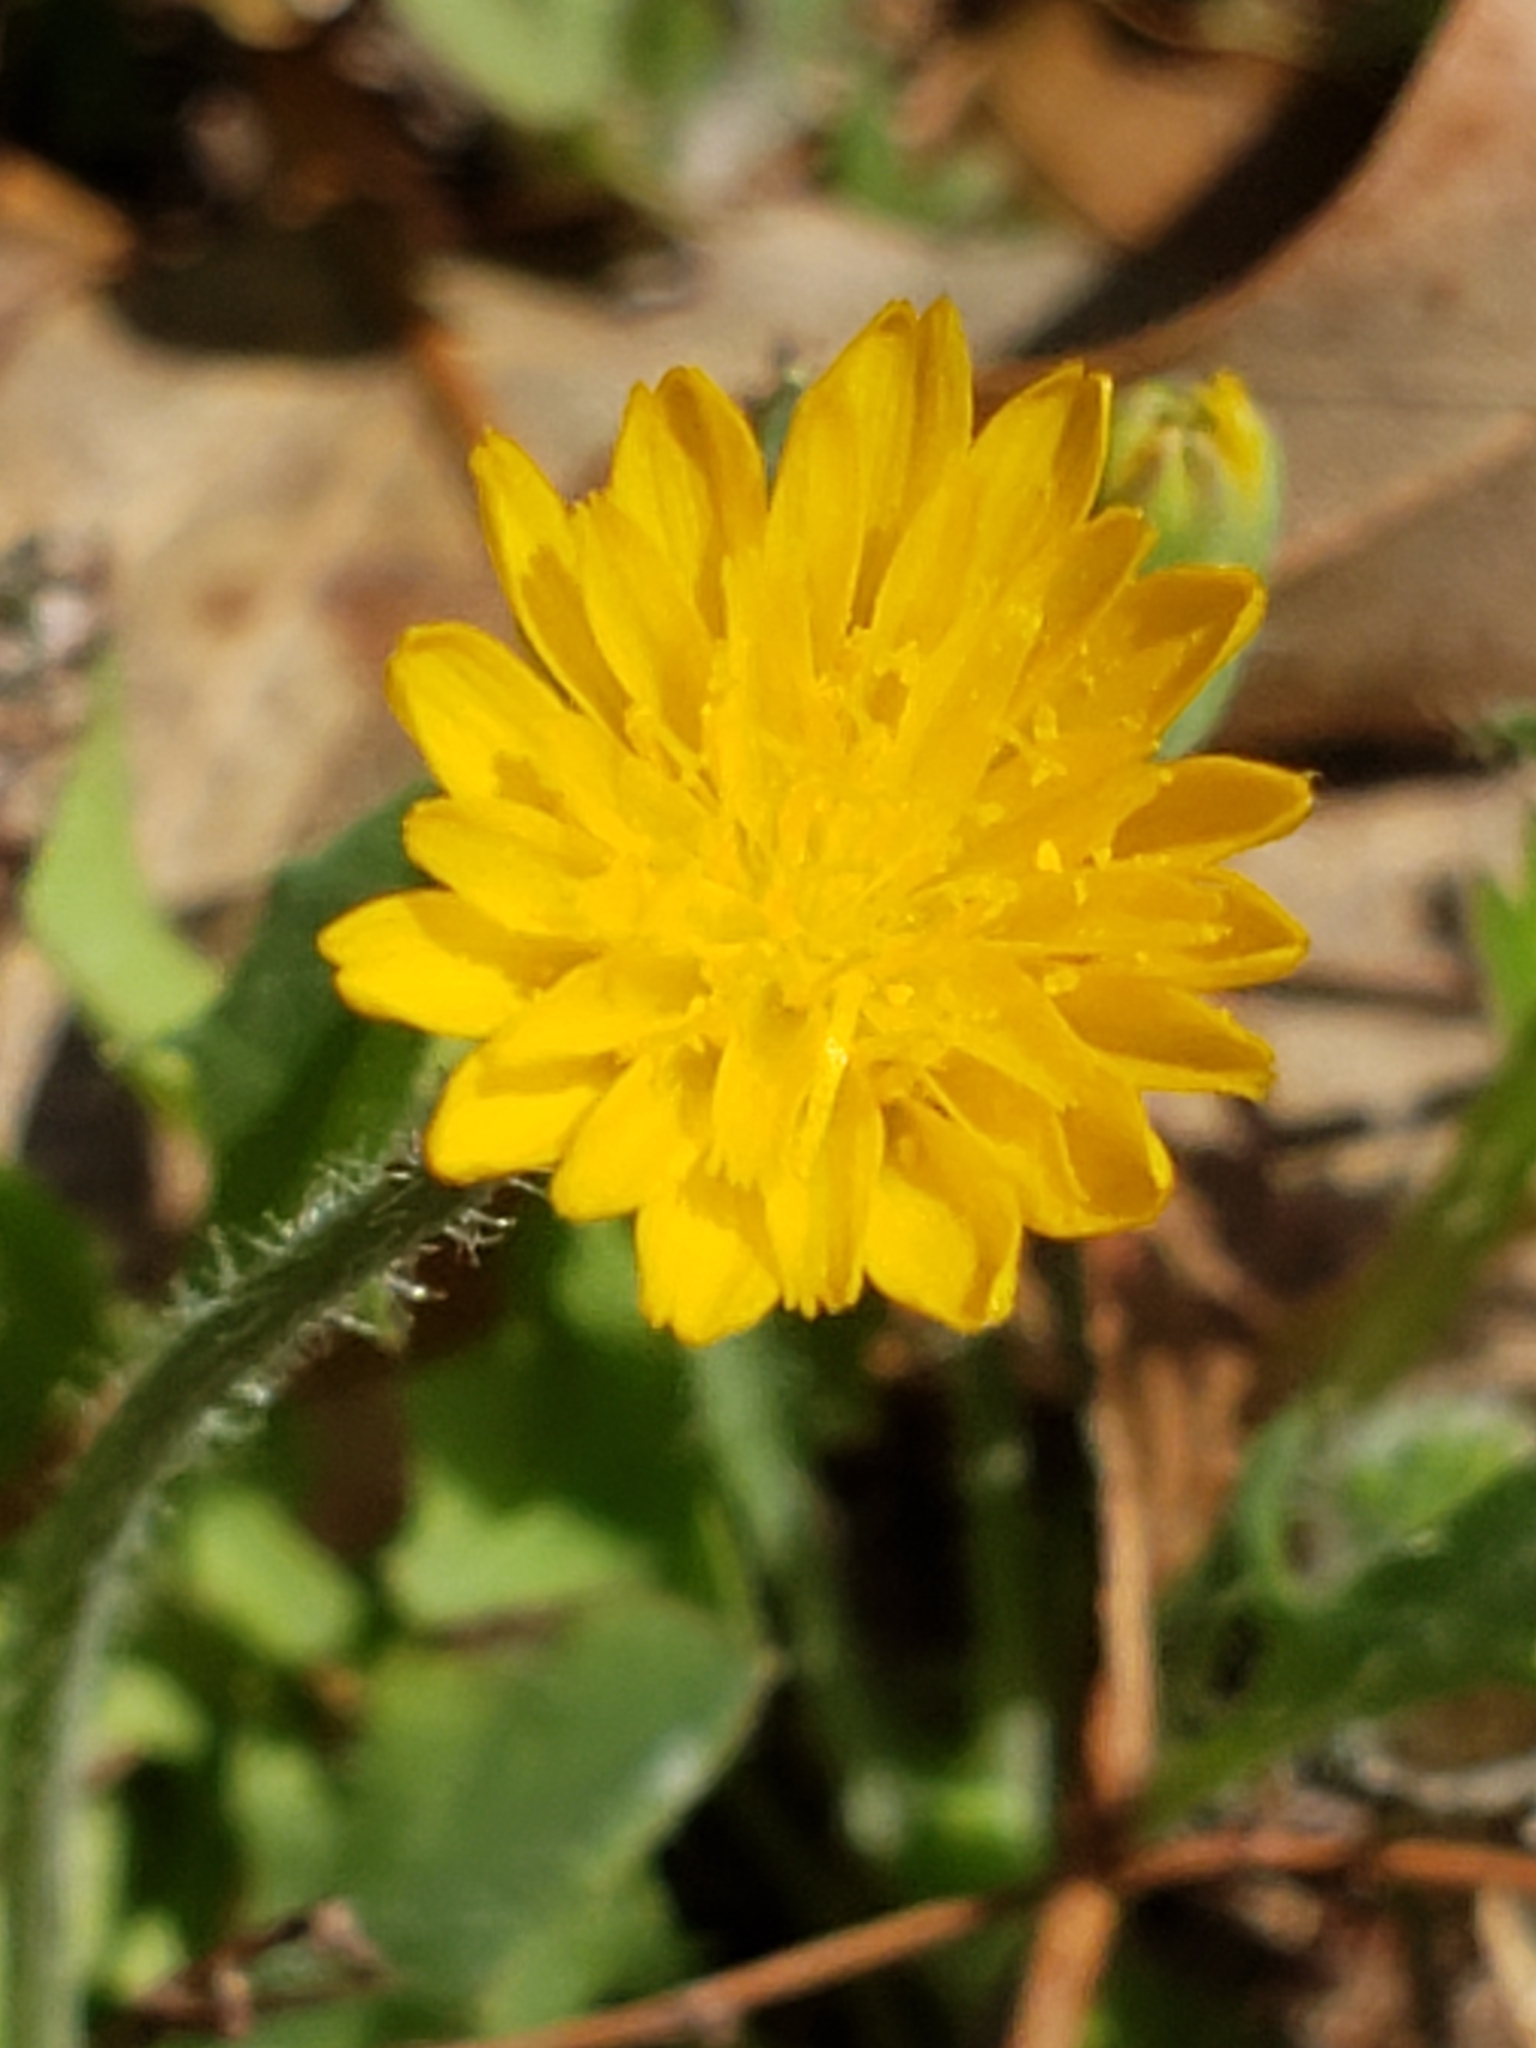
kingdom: Plantae
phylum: Tracheophyta
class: Magnoliopsida
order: Asterales
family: Asteraceae
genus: Krigia
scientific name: Krigia virginica
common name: Virginia dwarf-dandelion
